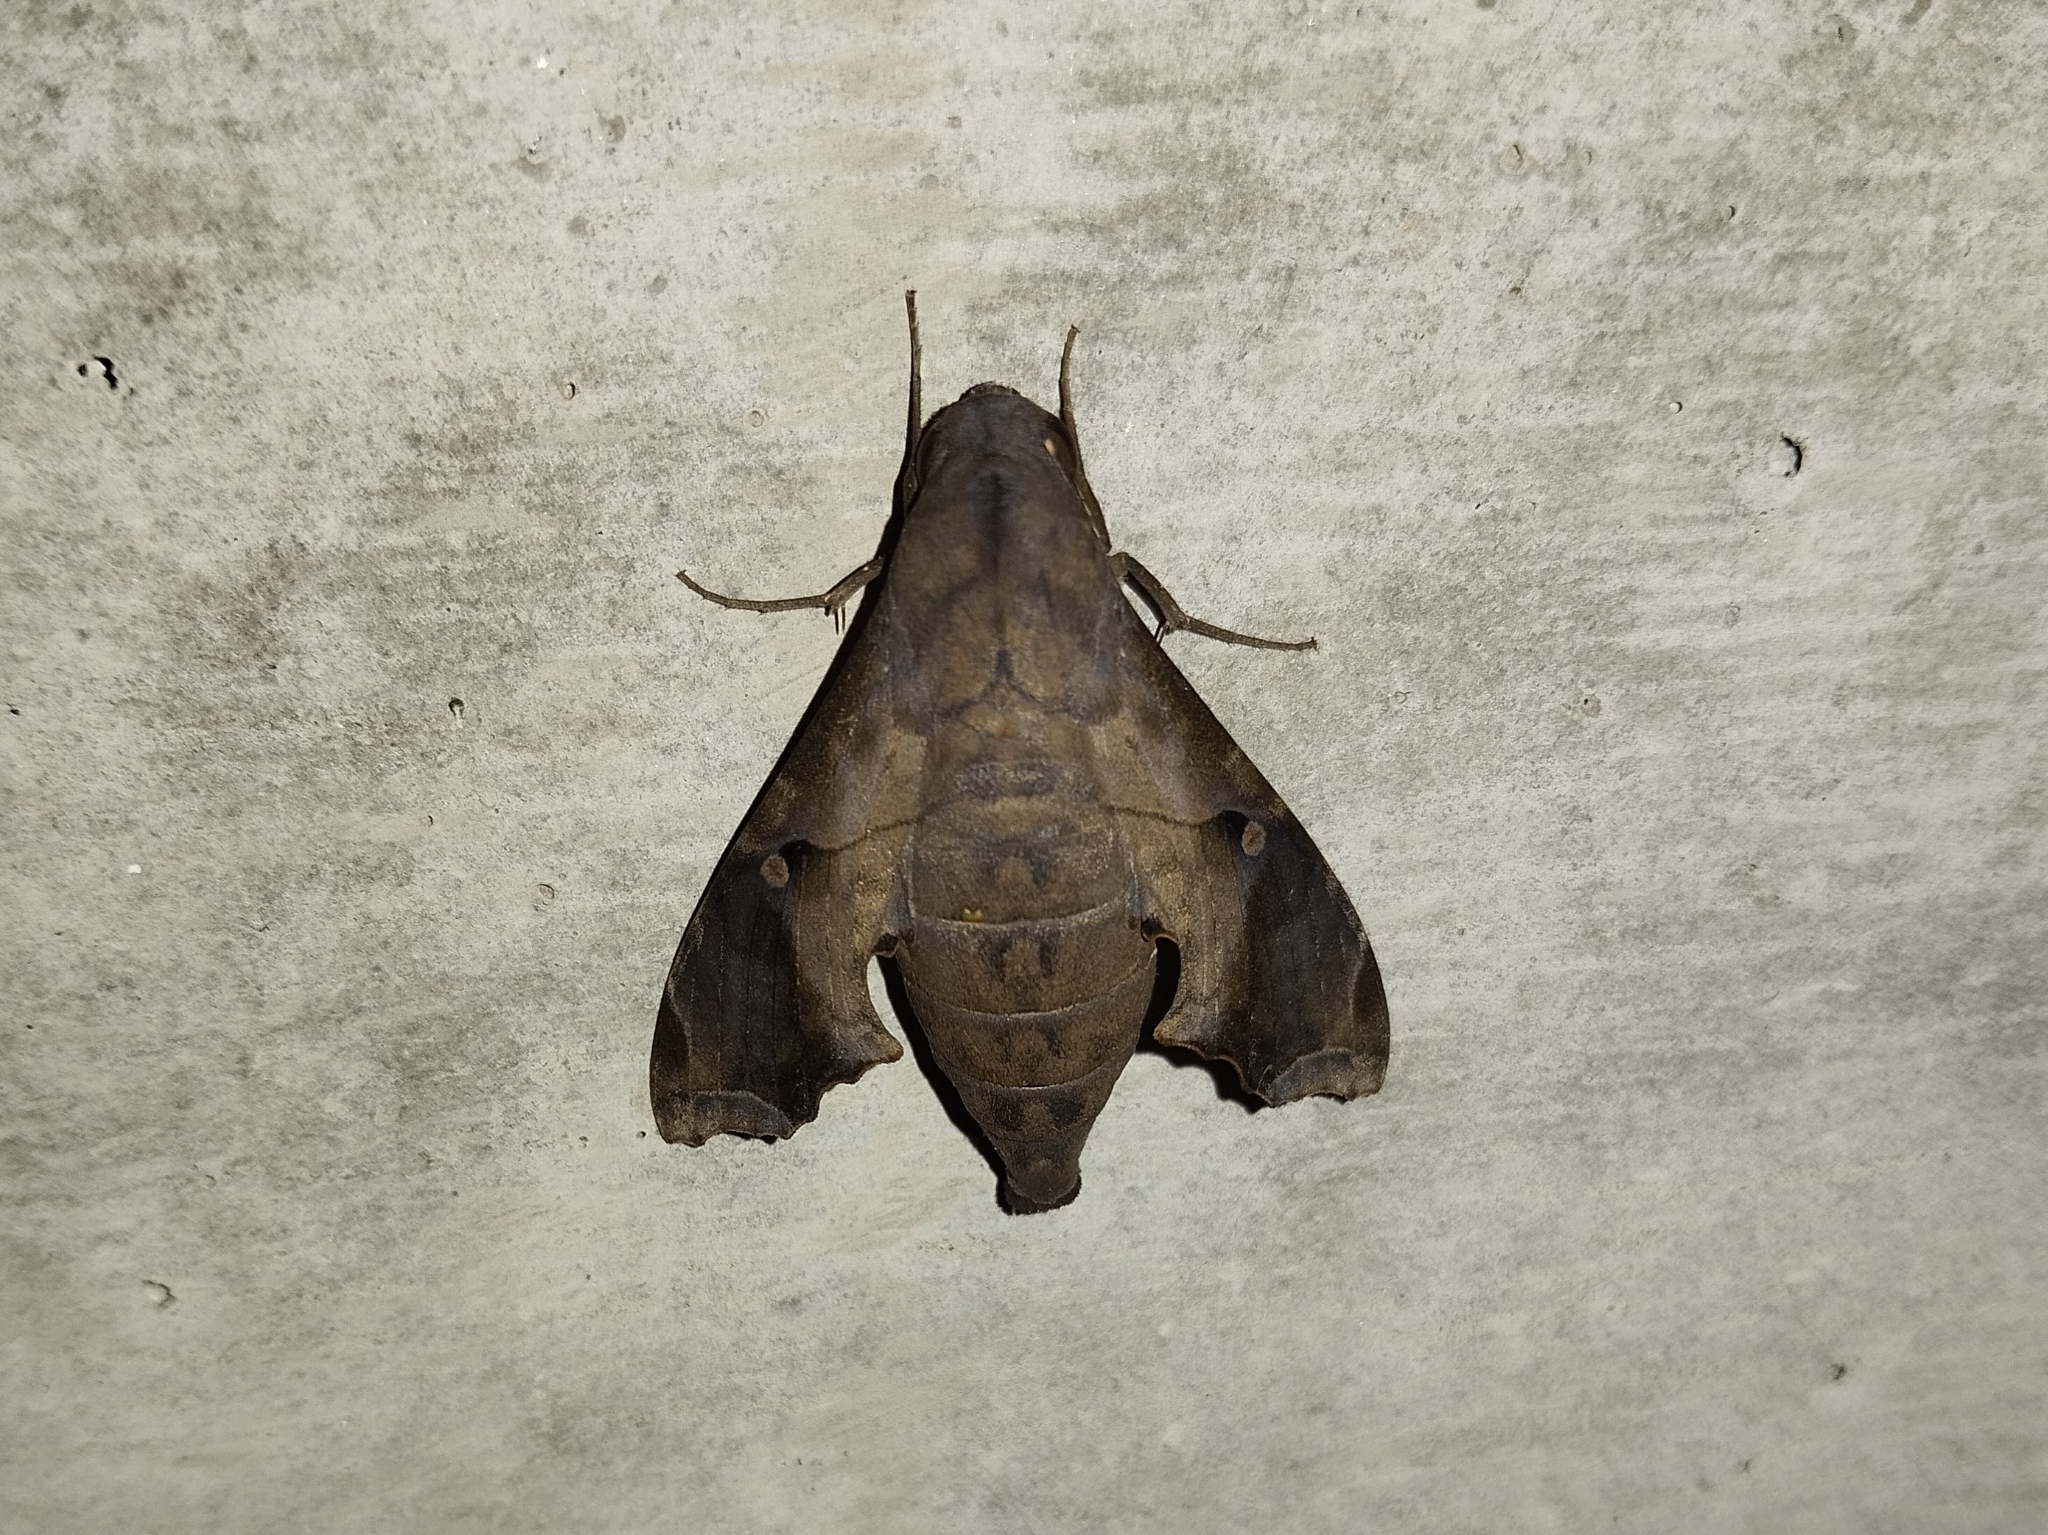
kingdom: Animalia
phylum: Arthropoda
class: Insecta
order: Lepidoptera
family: Sphingidae
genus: Enyo
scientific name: Enyo lugubris
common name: Mournful sphinx
